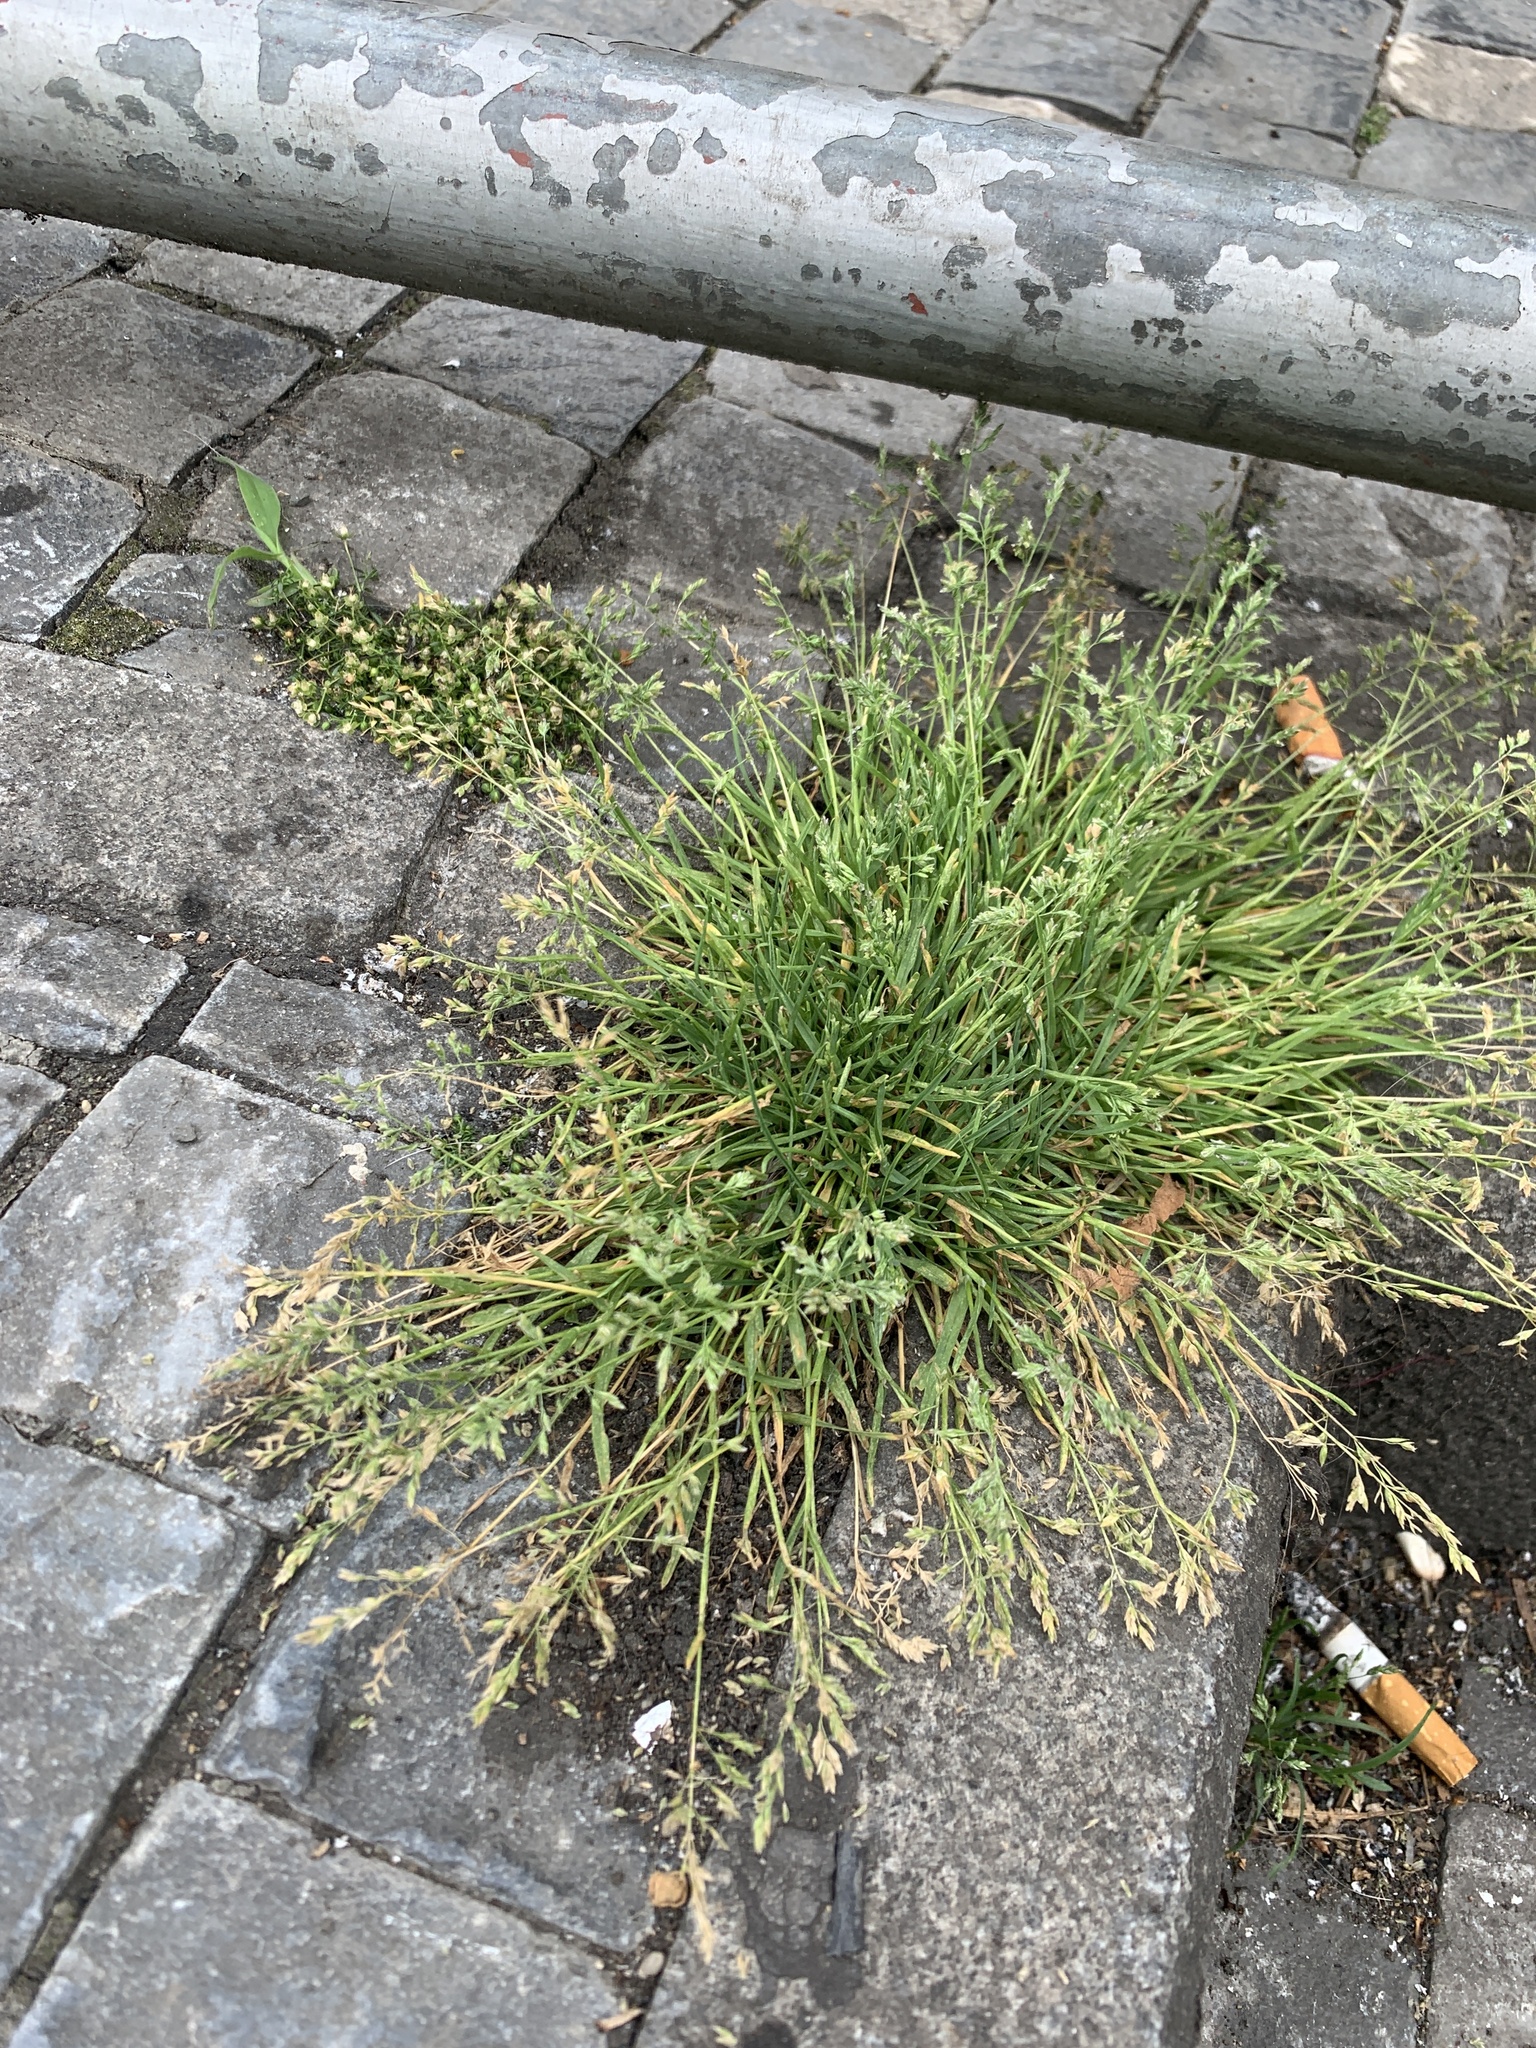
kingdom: Plantae
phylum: Tracheophyta
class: Liliopsida
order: Poales
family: Poaceae
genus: Poa
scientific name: Poa annua
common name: Annual bluegrass
